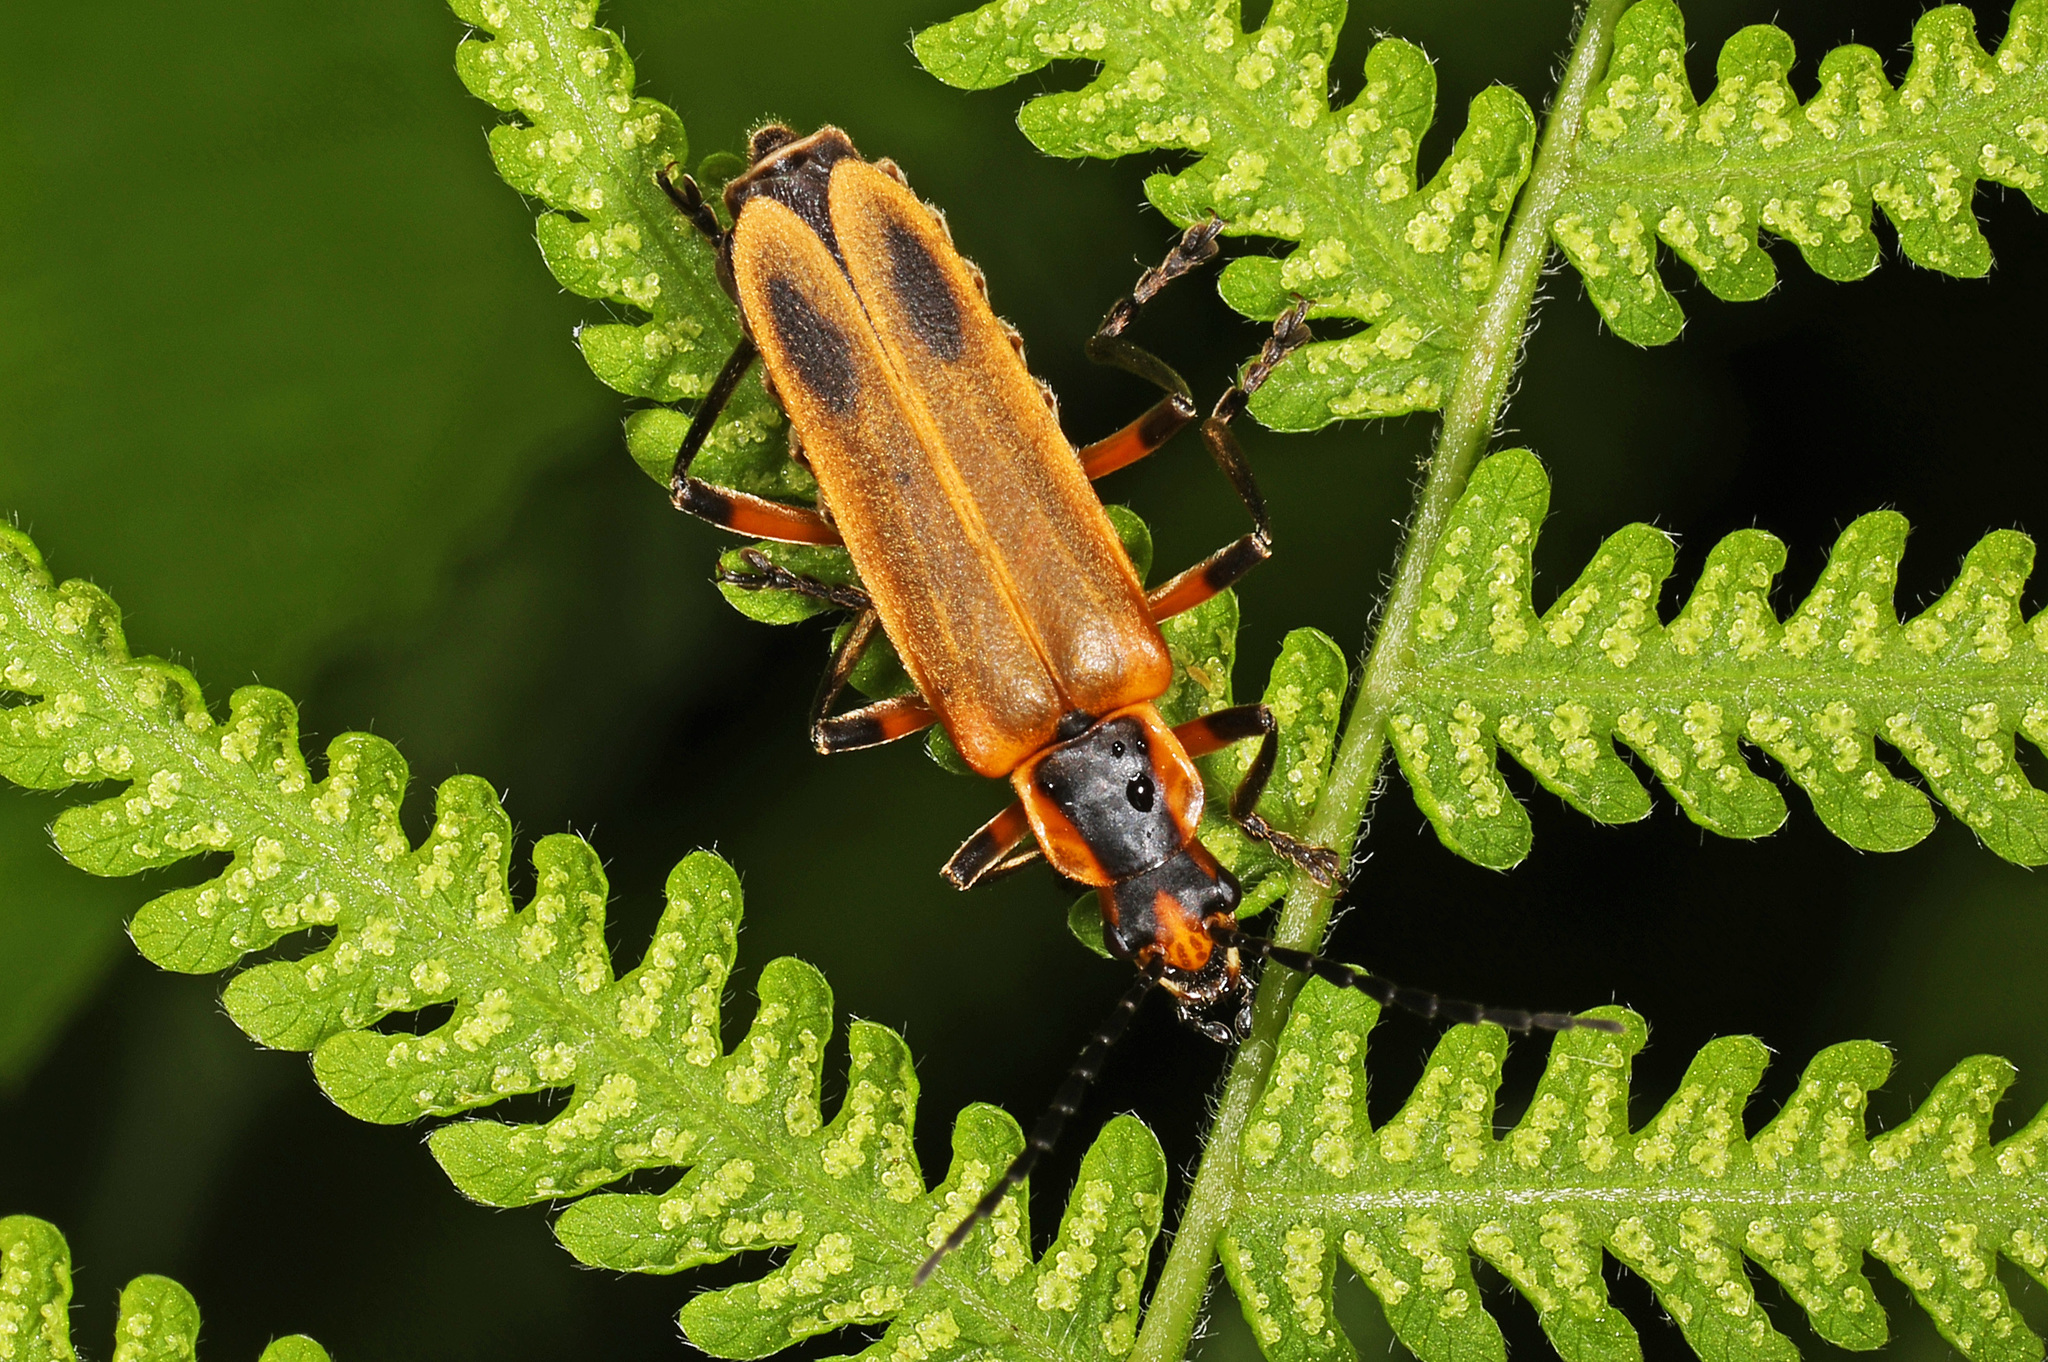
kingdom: Animalia
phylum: Arthropoda
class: Insecta
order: Coleoptera
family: Cantharidae
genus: Chauliognathus
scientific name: Chauliognathus marginatus
